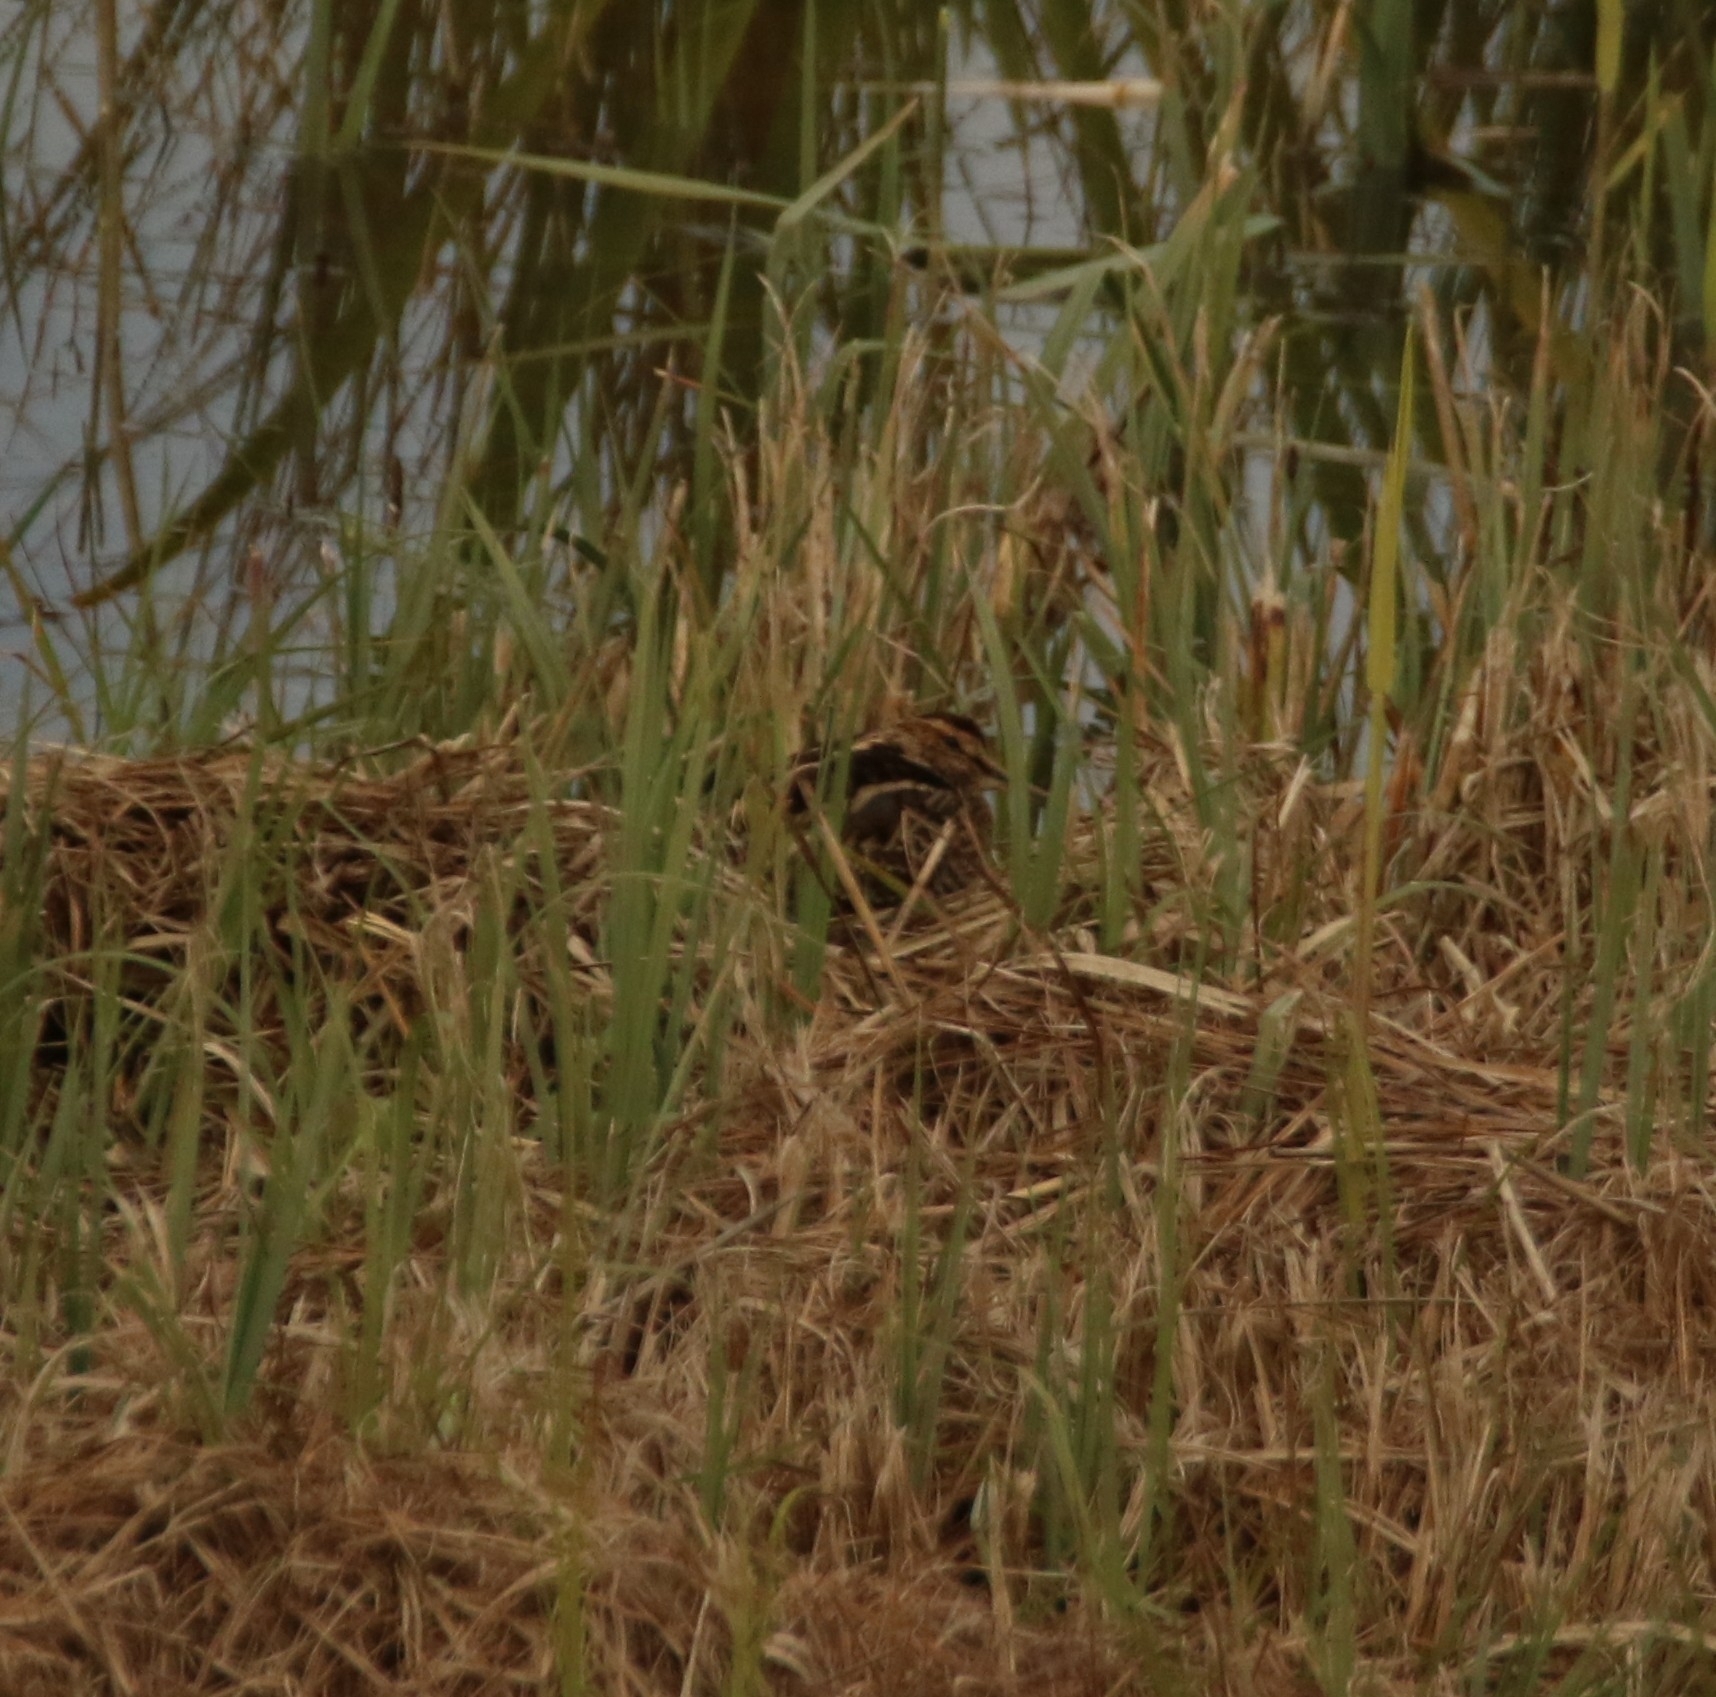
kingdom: Animalia
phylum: Chordata
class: Aves
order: Charadriiformes
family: Scolopacidae
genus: Gallinago
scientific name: Gallinago gallinago
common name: Common snipe
